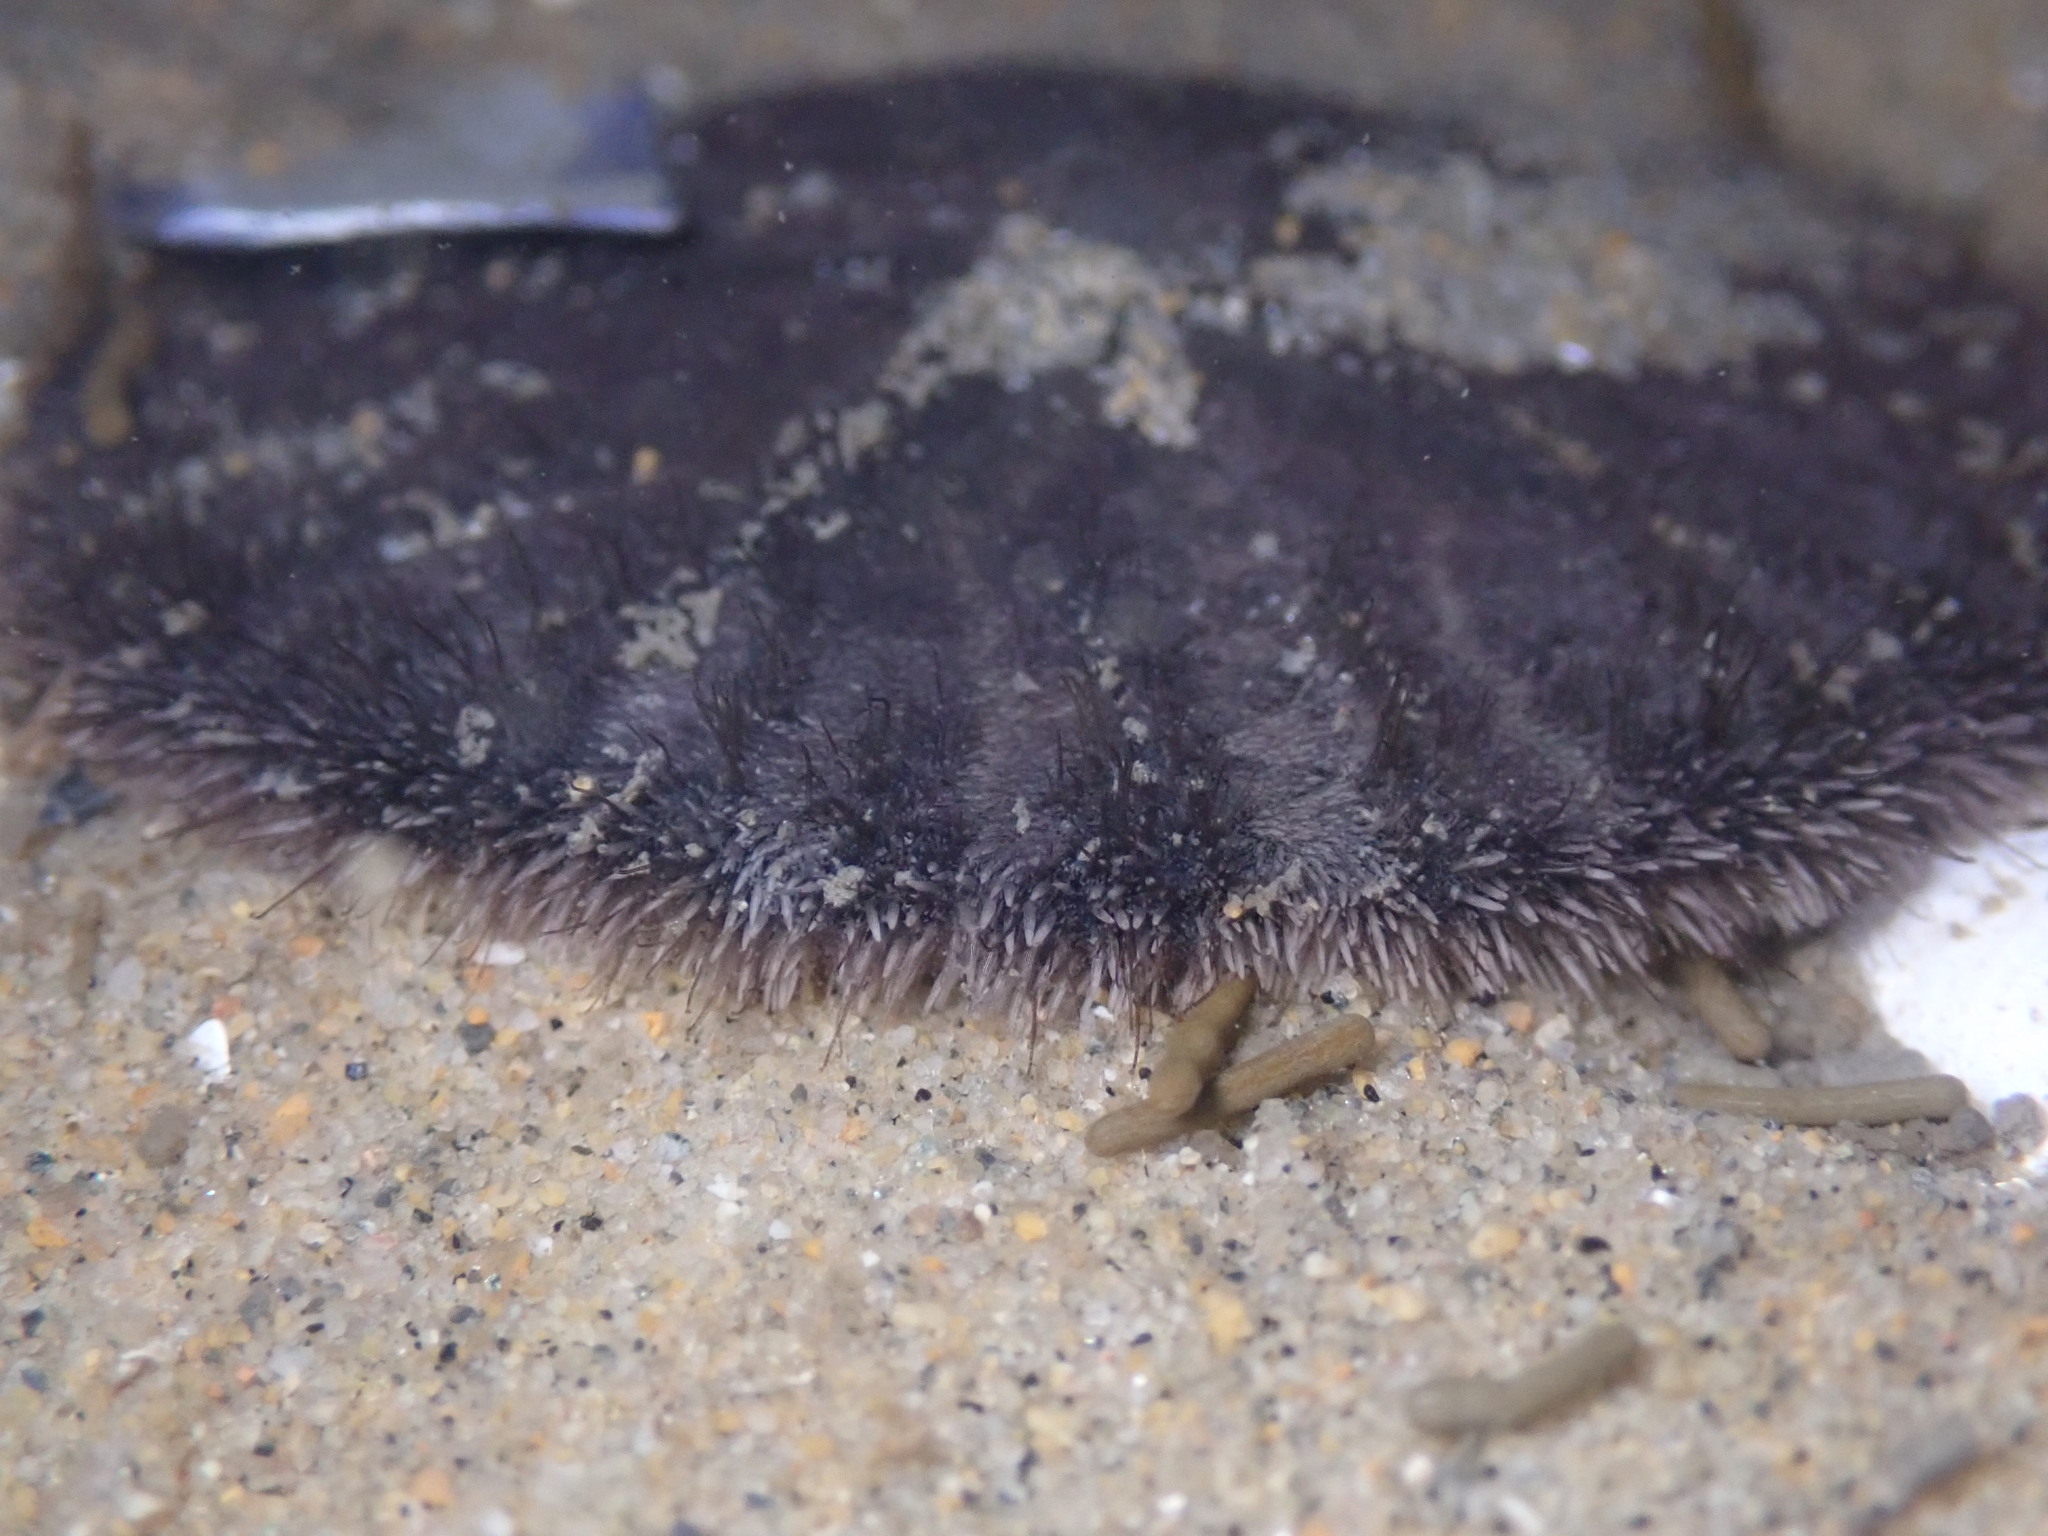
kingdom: Animalia
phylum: Echinodermata
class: Echinoidea
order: Echinolampadacea
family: Dendrasteridae
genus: Dendraster
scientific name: Dendraster excentricus
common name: Eccentric sand dollar sea urchin
